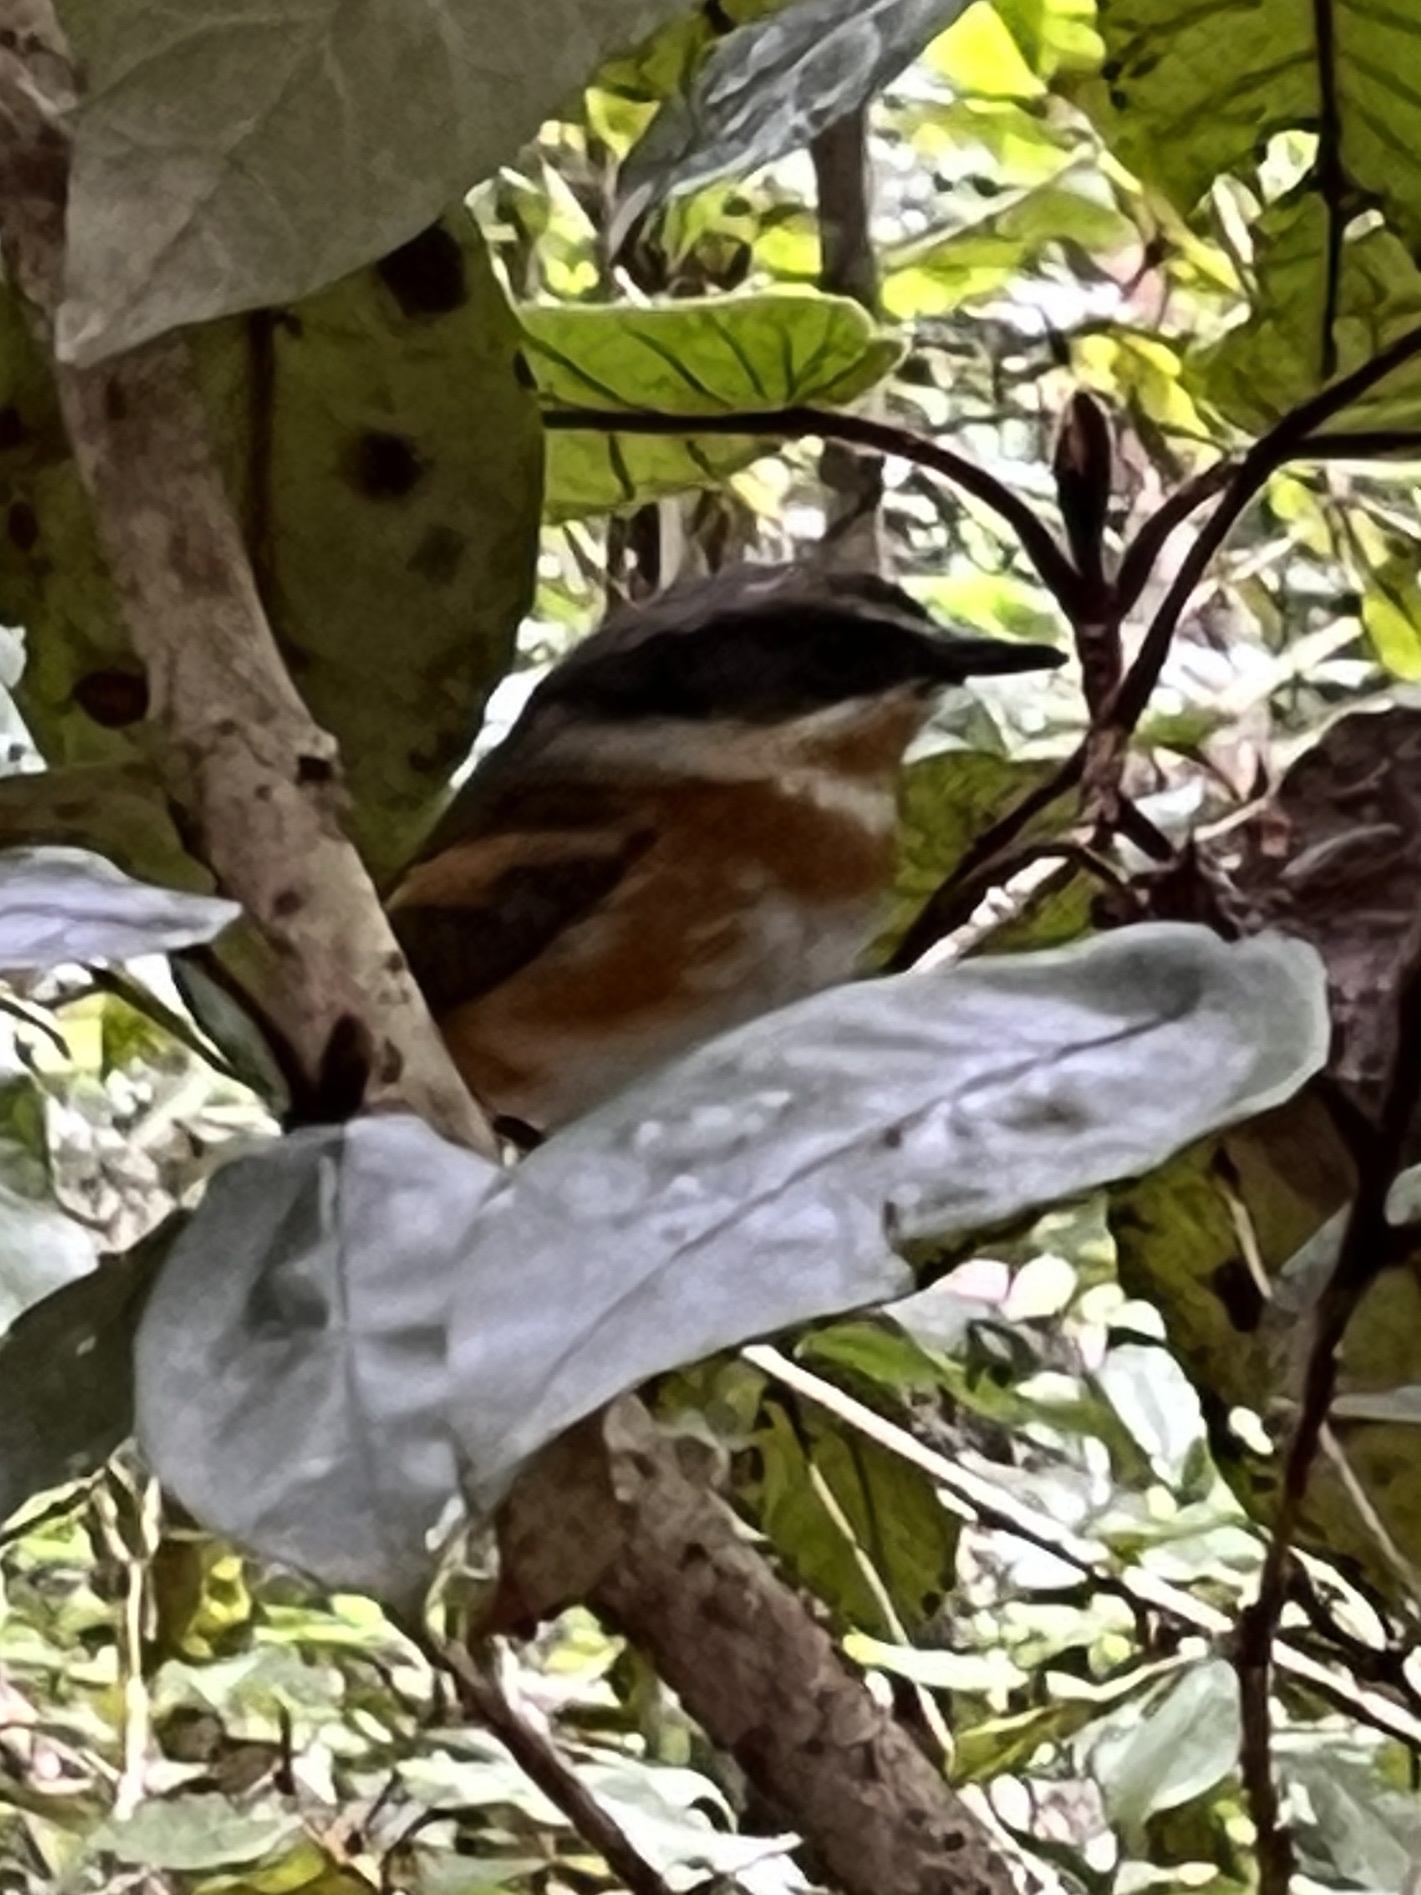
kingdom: Animalia
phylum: Chordata
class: Aves
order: Passeriformes
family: Platysteiridae
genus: Batis
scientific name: Batis capensis
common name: Cape batis
